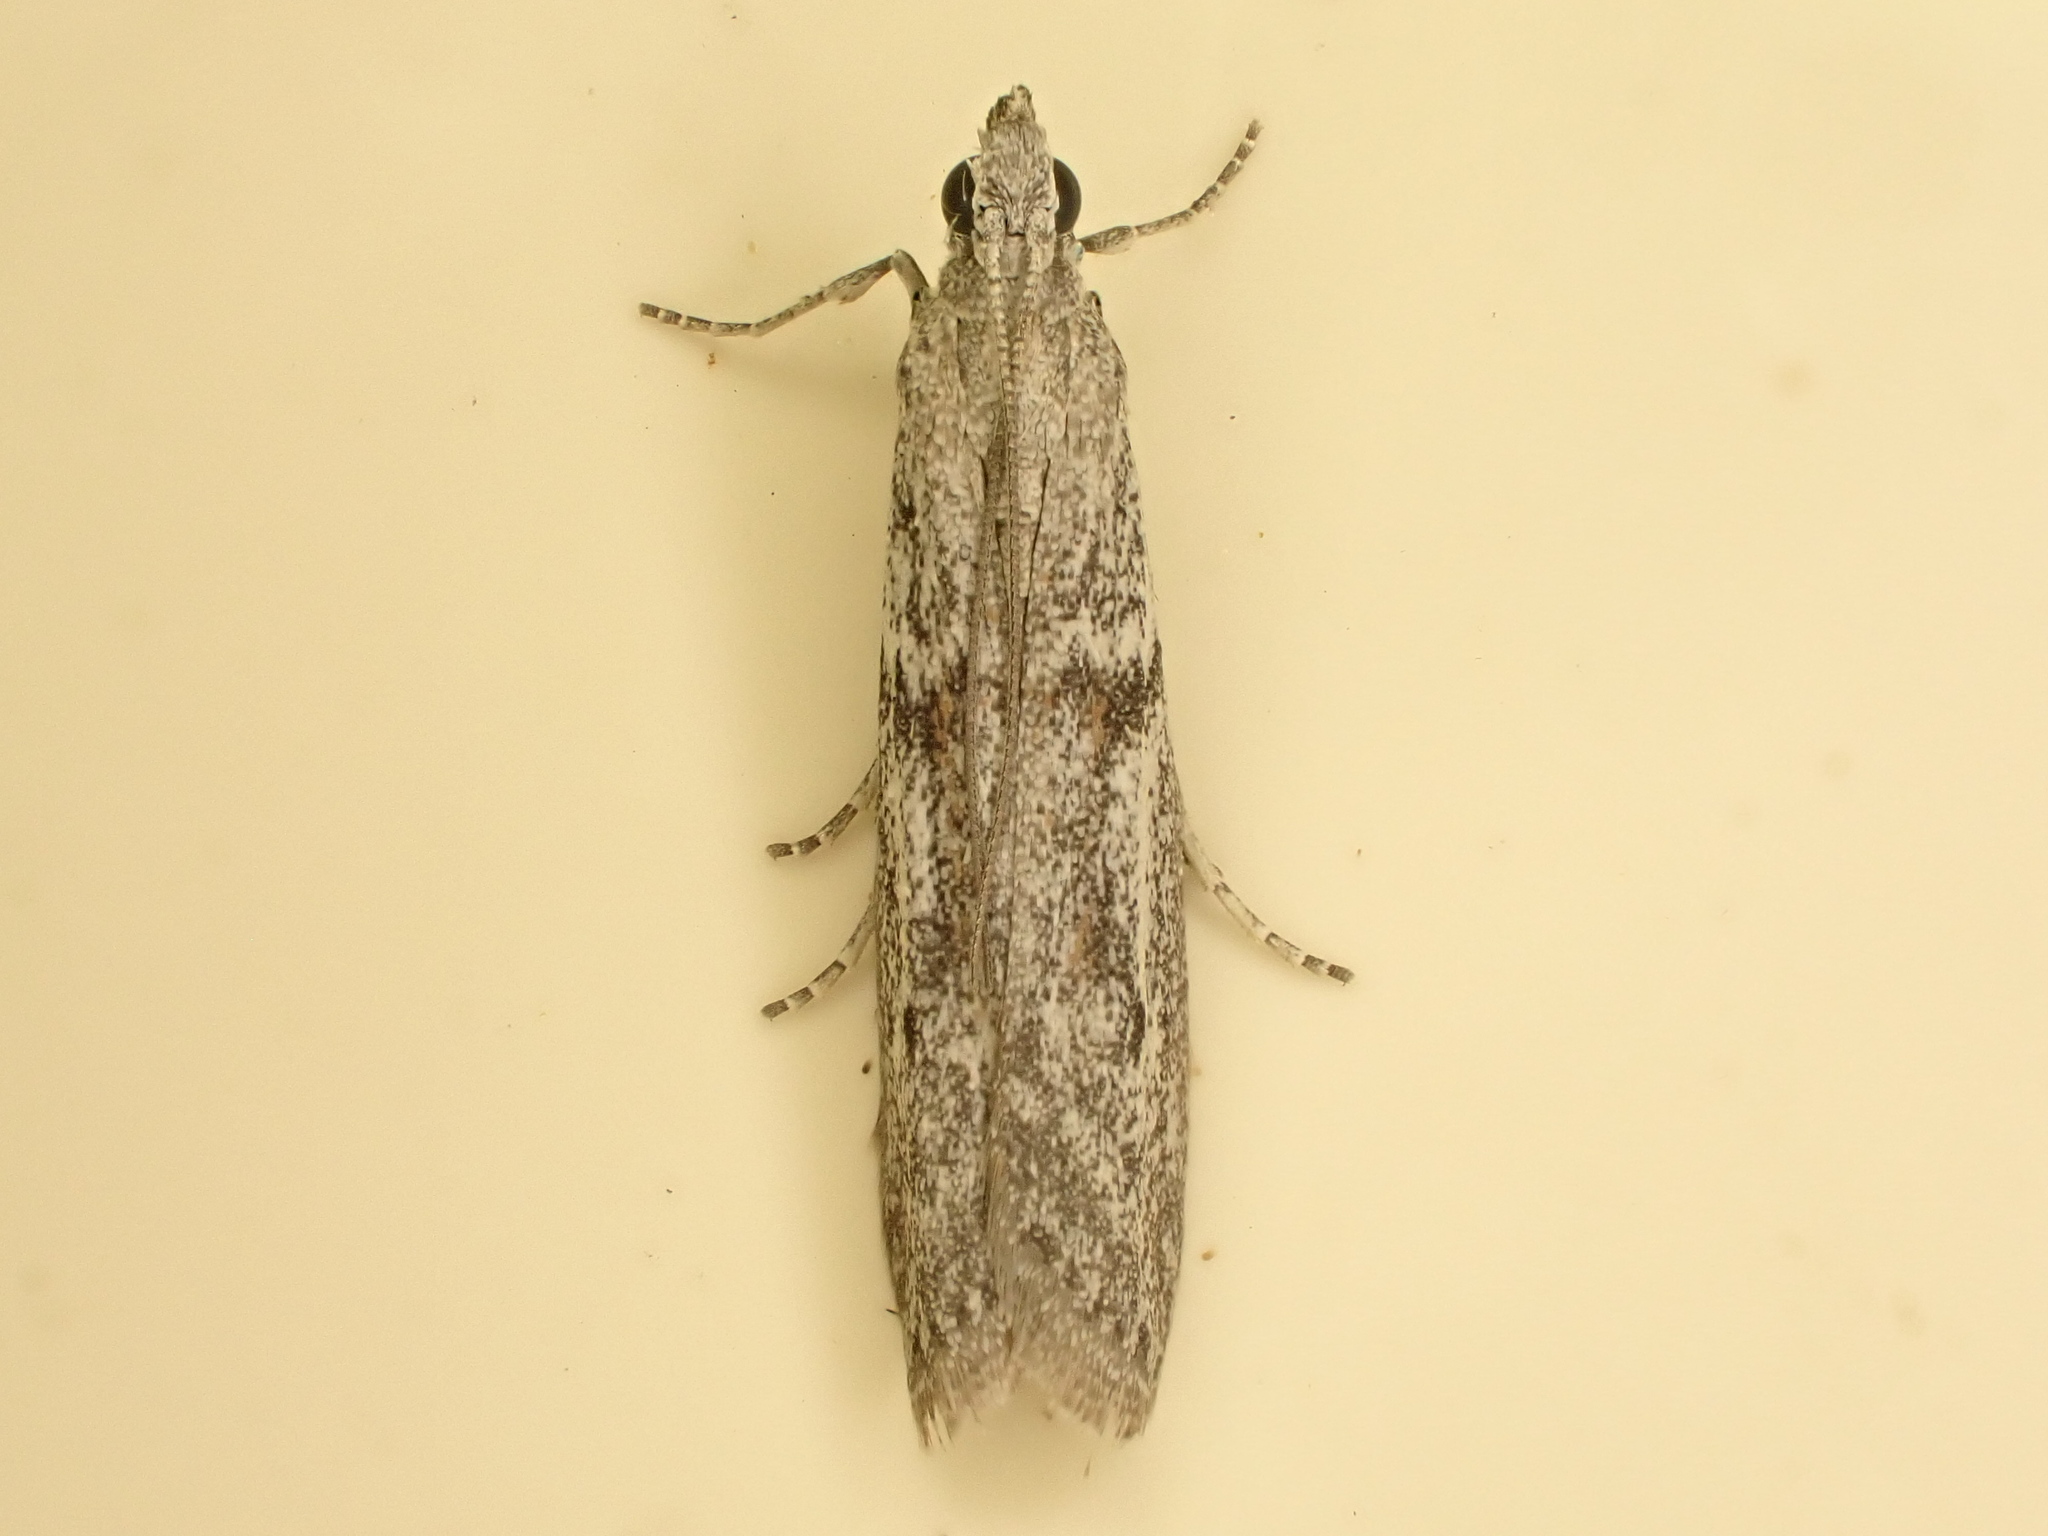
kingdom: Animalia
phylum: Arthropoda
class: Insecta
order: Lepidoptera
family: Pyralidae
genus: Homoeosoma
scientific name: Homoeosoma anaspila
